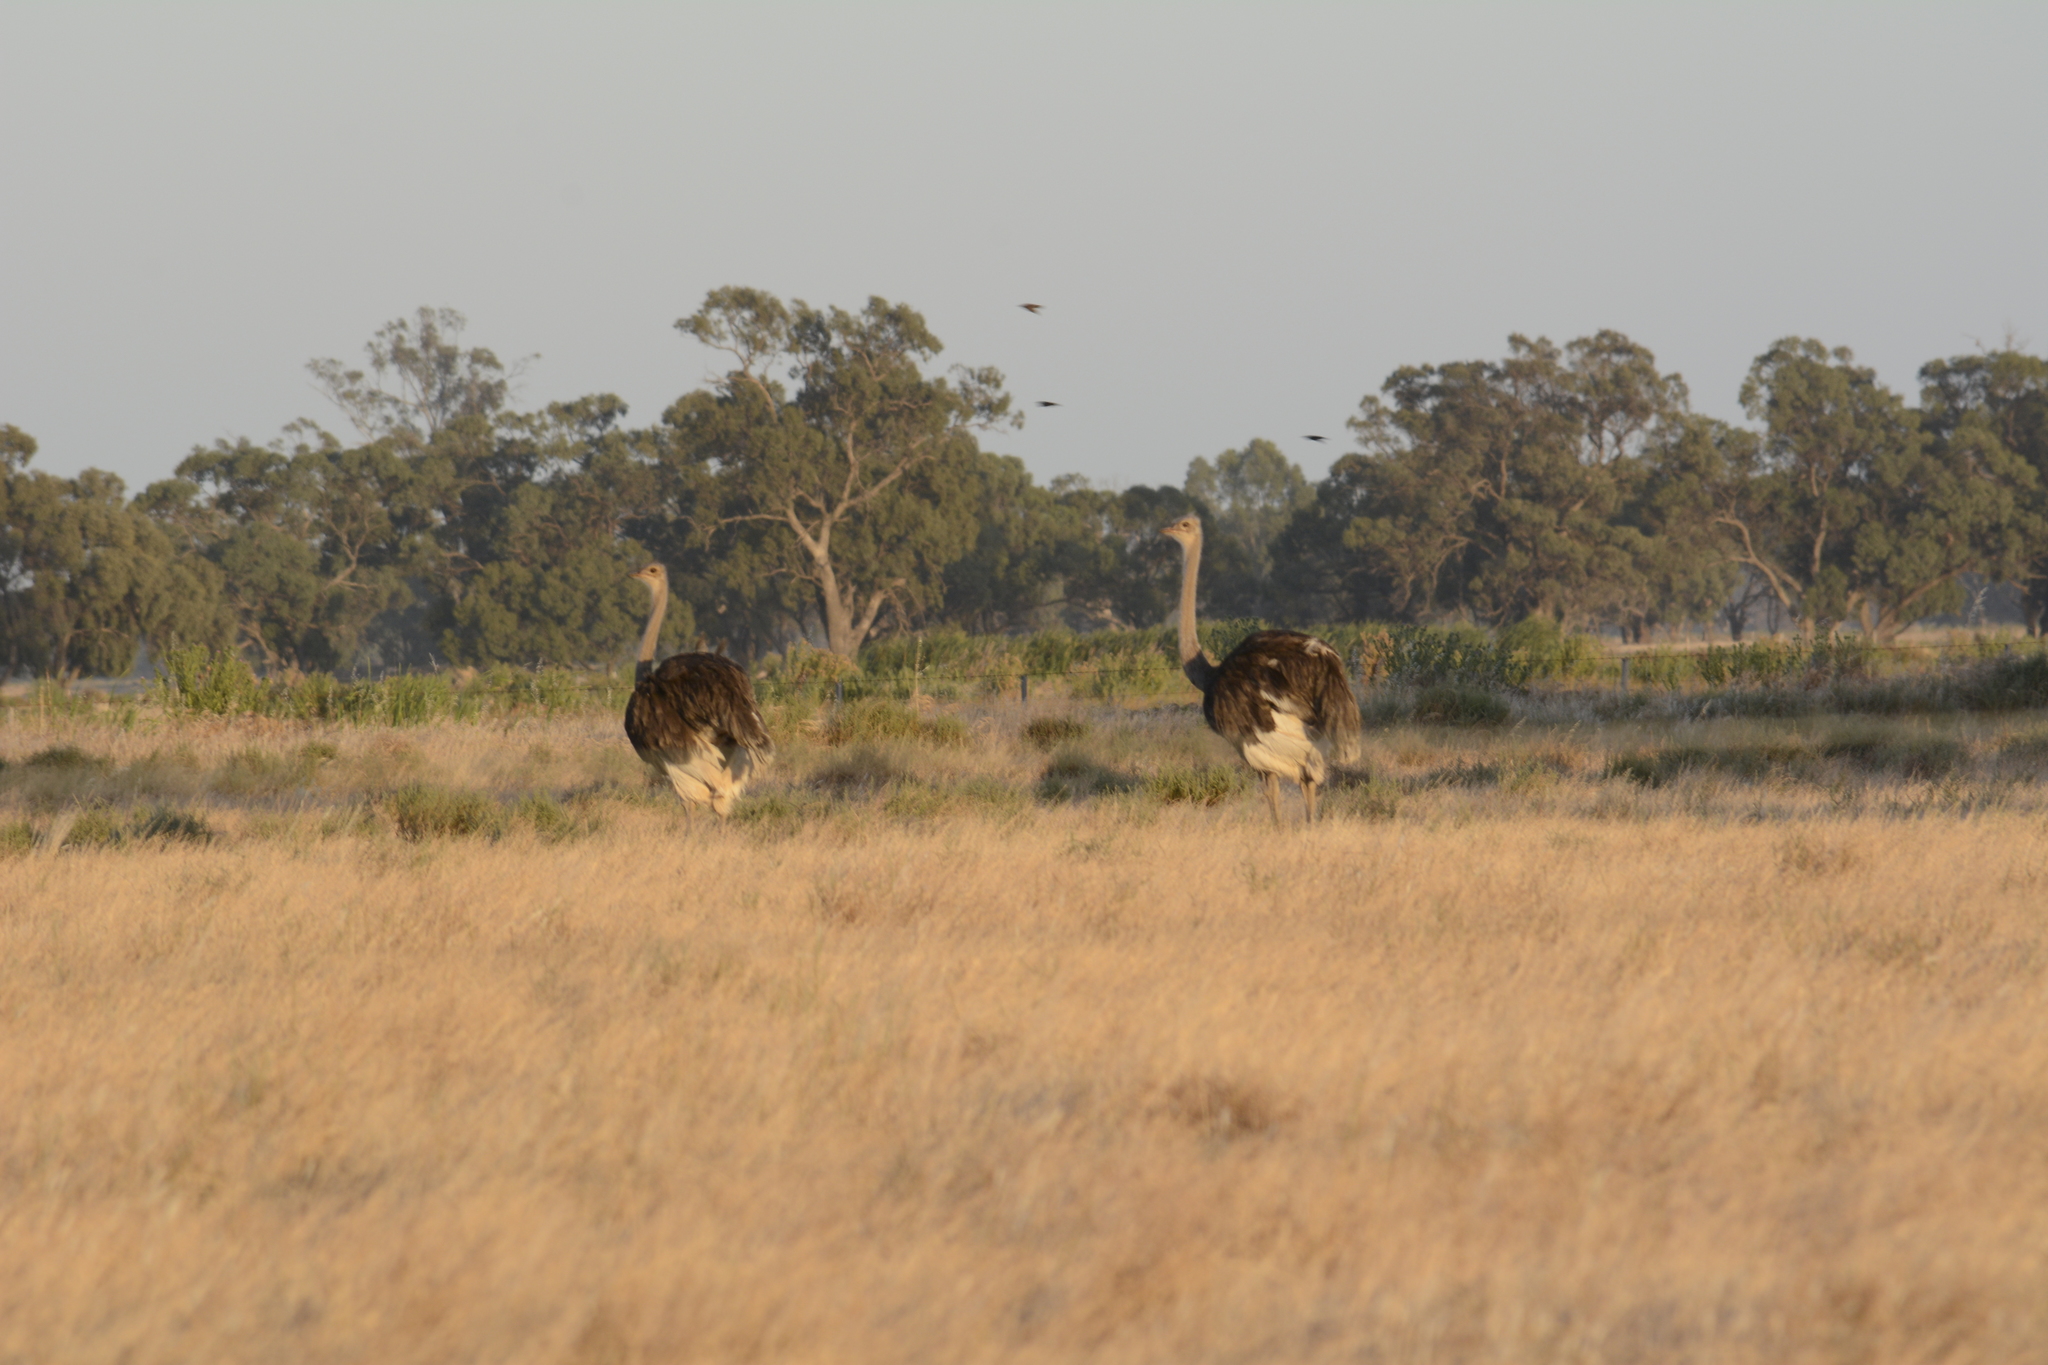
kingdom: Animalia
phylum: Chordata
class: Aves
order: Struthioniformes
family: Struthionidae
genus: Struthio
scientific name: Struthio camelus
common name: Common ostrich
